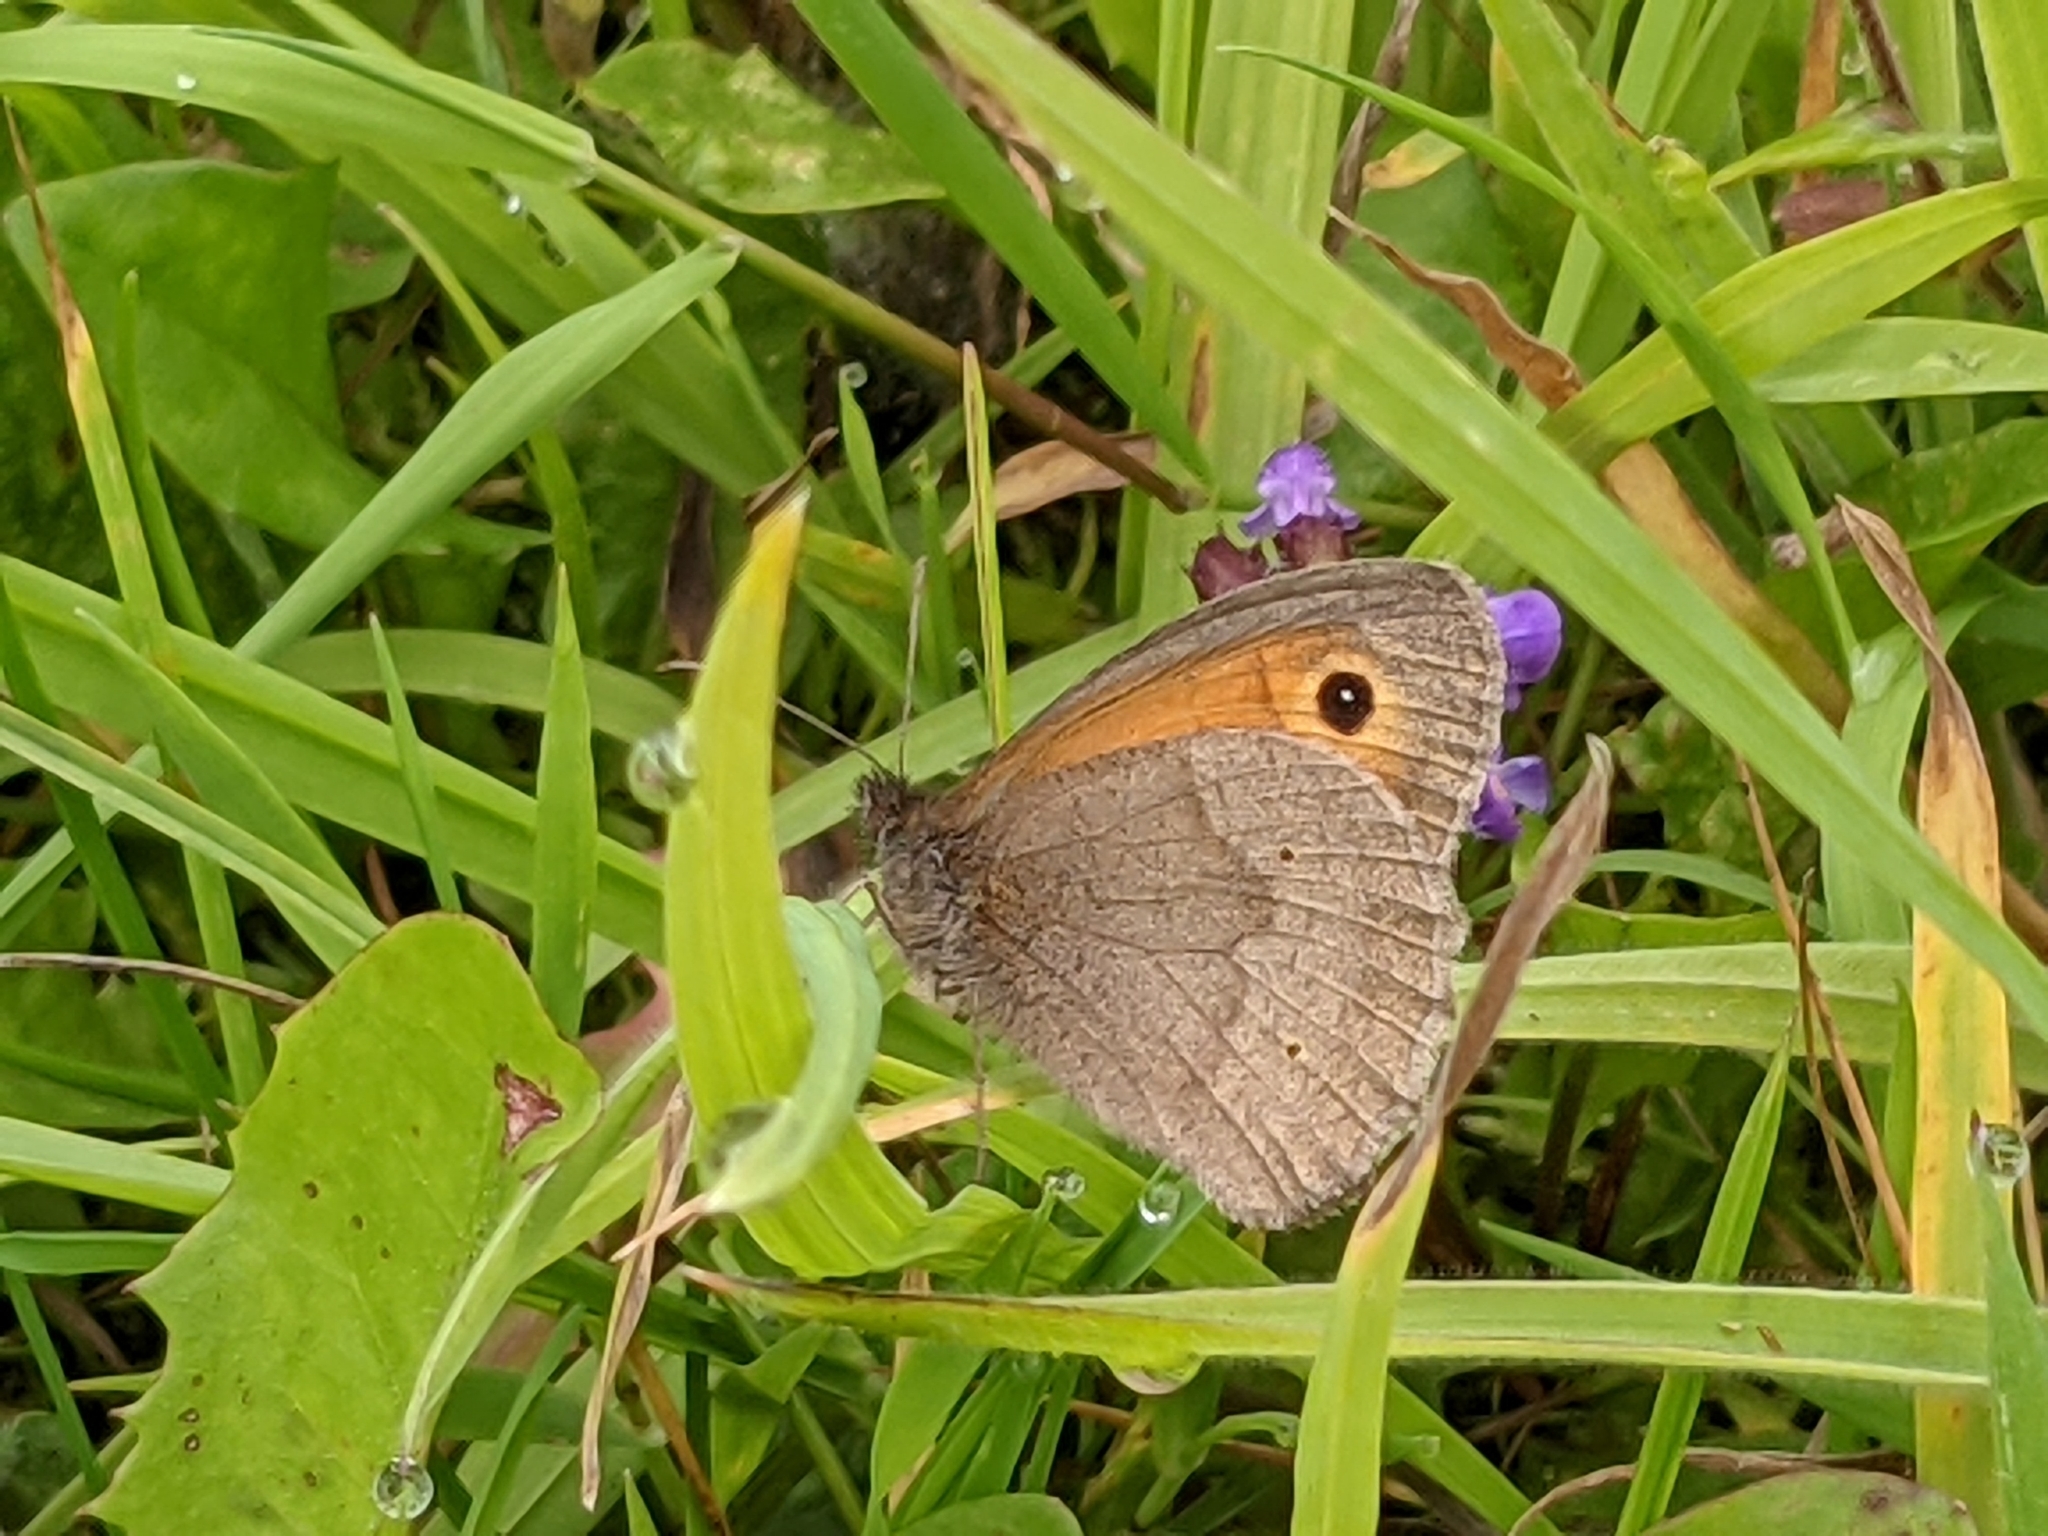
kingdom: Animalia
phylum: Arthropoda
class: Insecta
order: Lepidoptera
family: Nymphalidae
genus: Maniola
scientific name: Maniola jurtina
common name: Meadow brown
